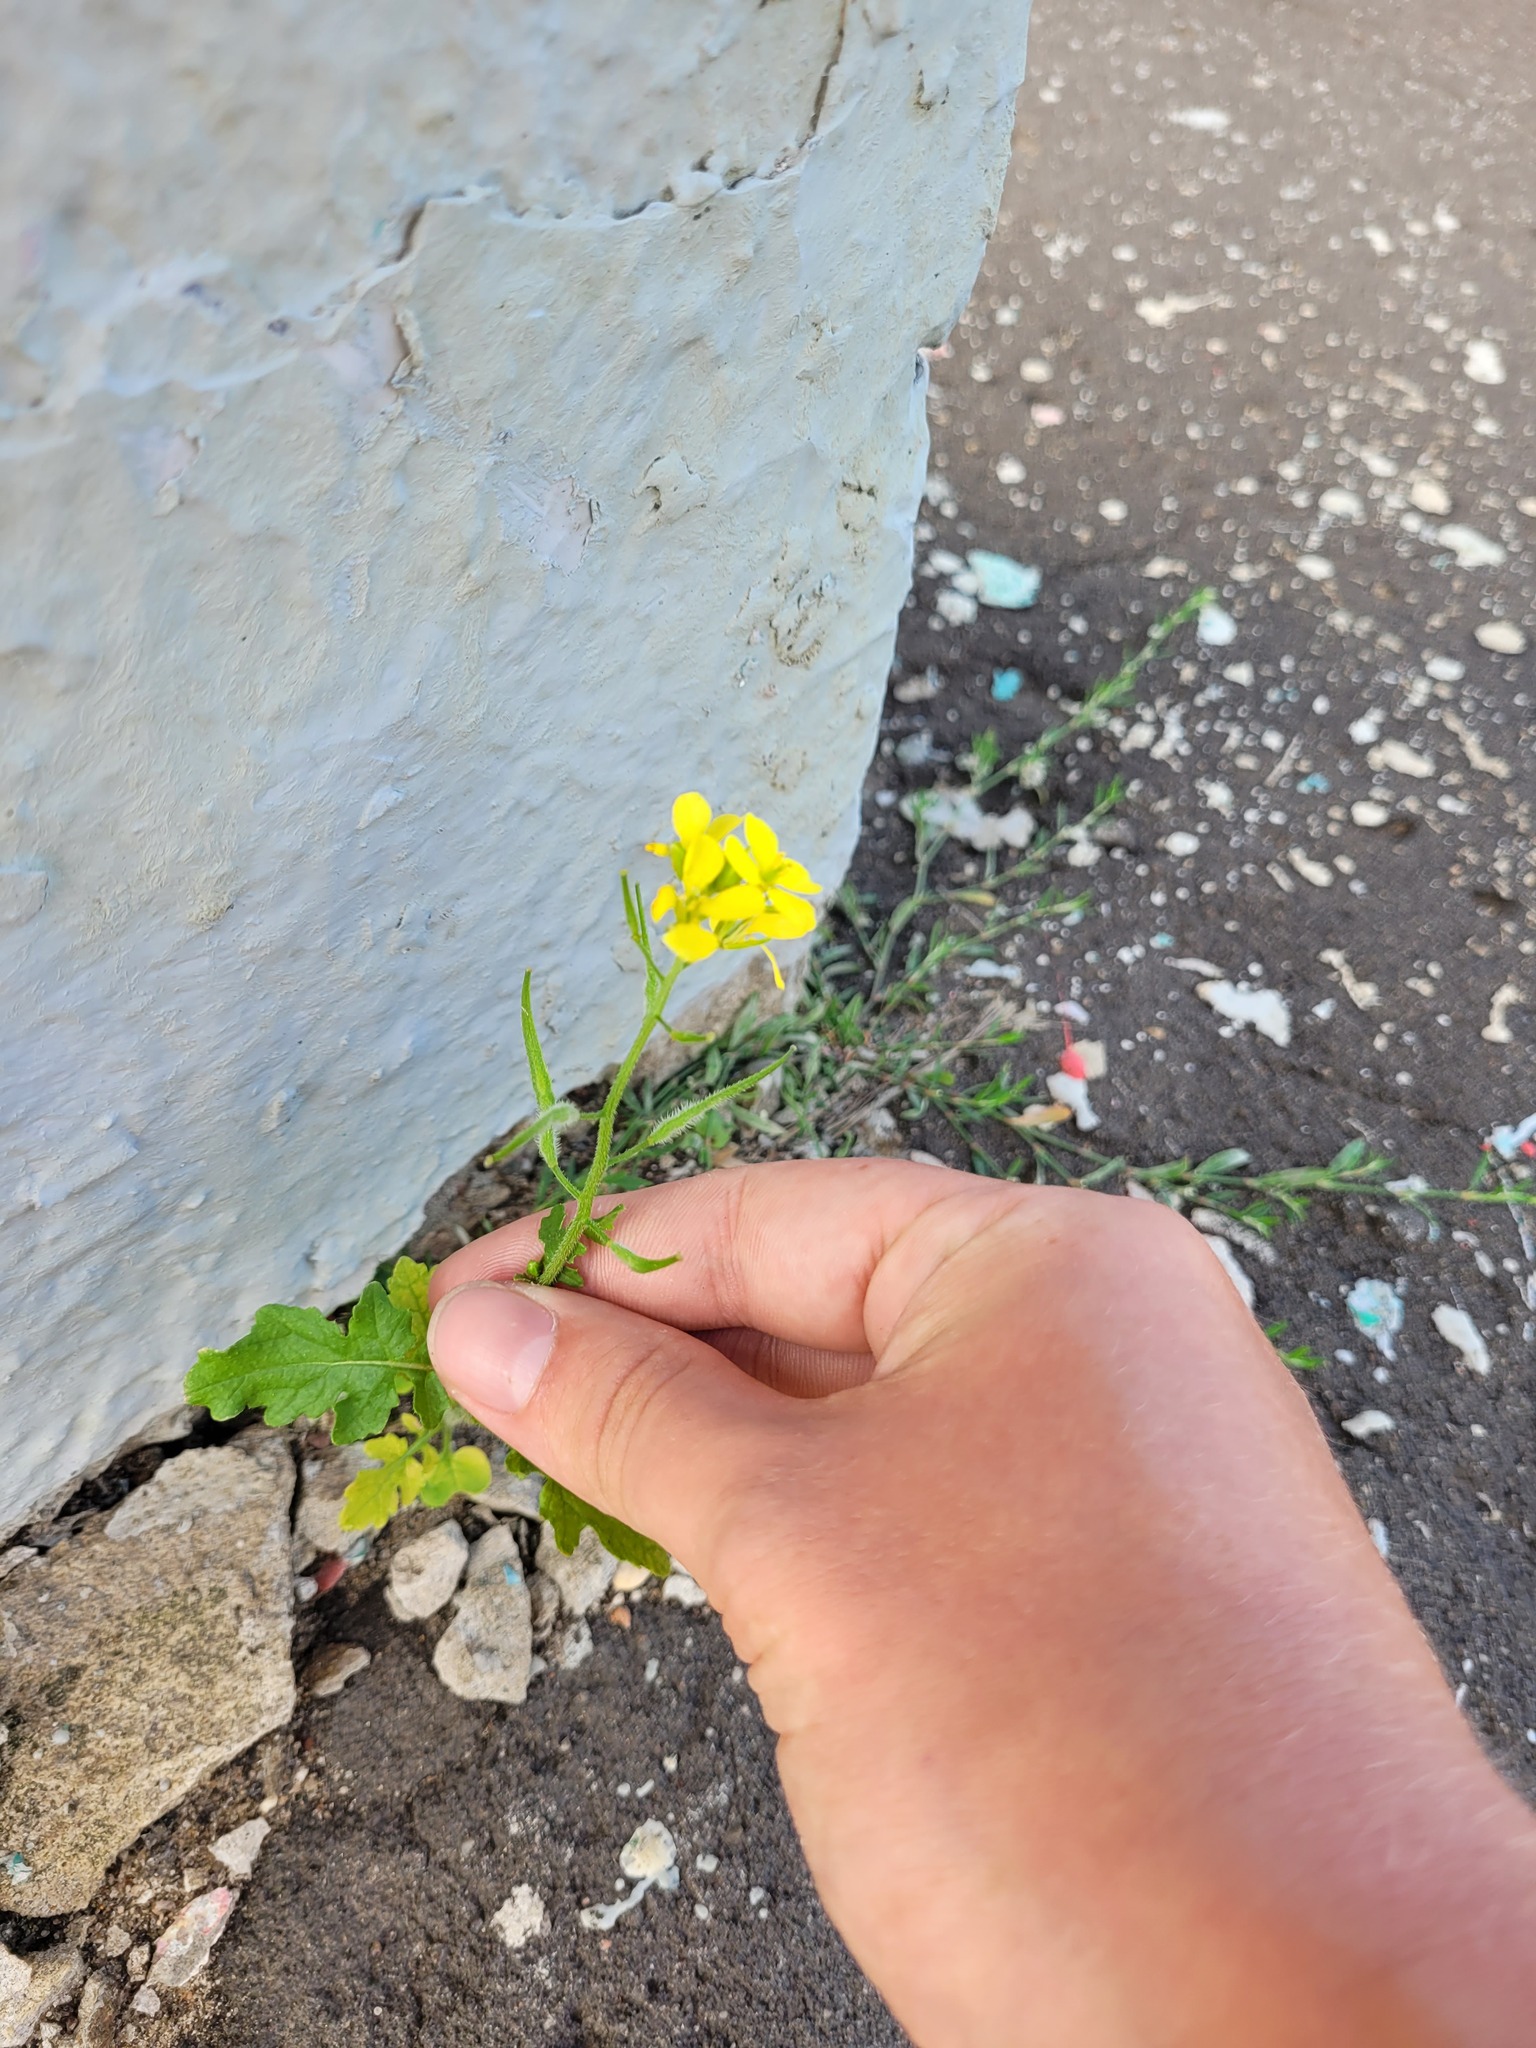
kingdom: Plantae
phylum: Tracheophyta
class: Magnoliopsida
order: Brassicales
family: Brassicaceae
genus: Sinapis
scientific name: Sinapis alba
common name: White mustard
